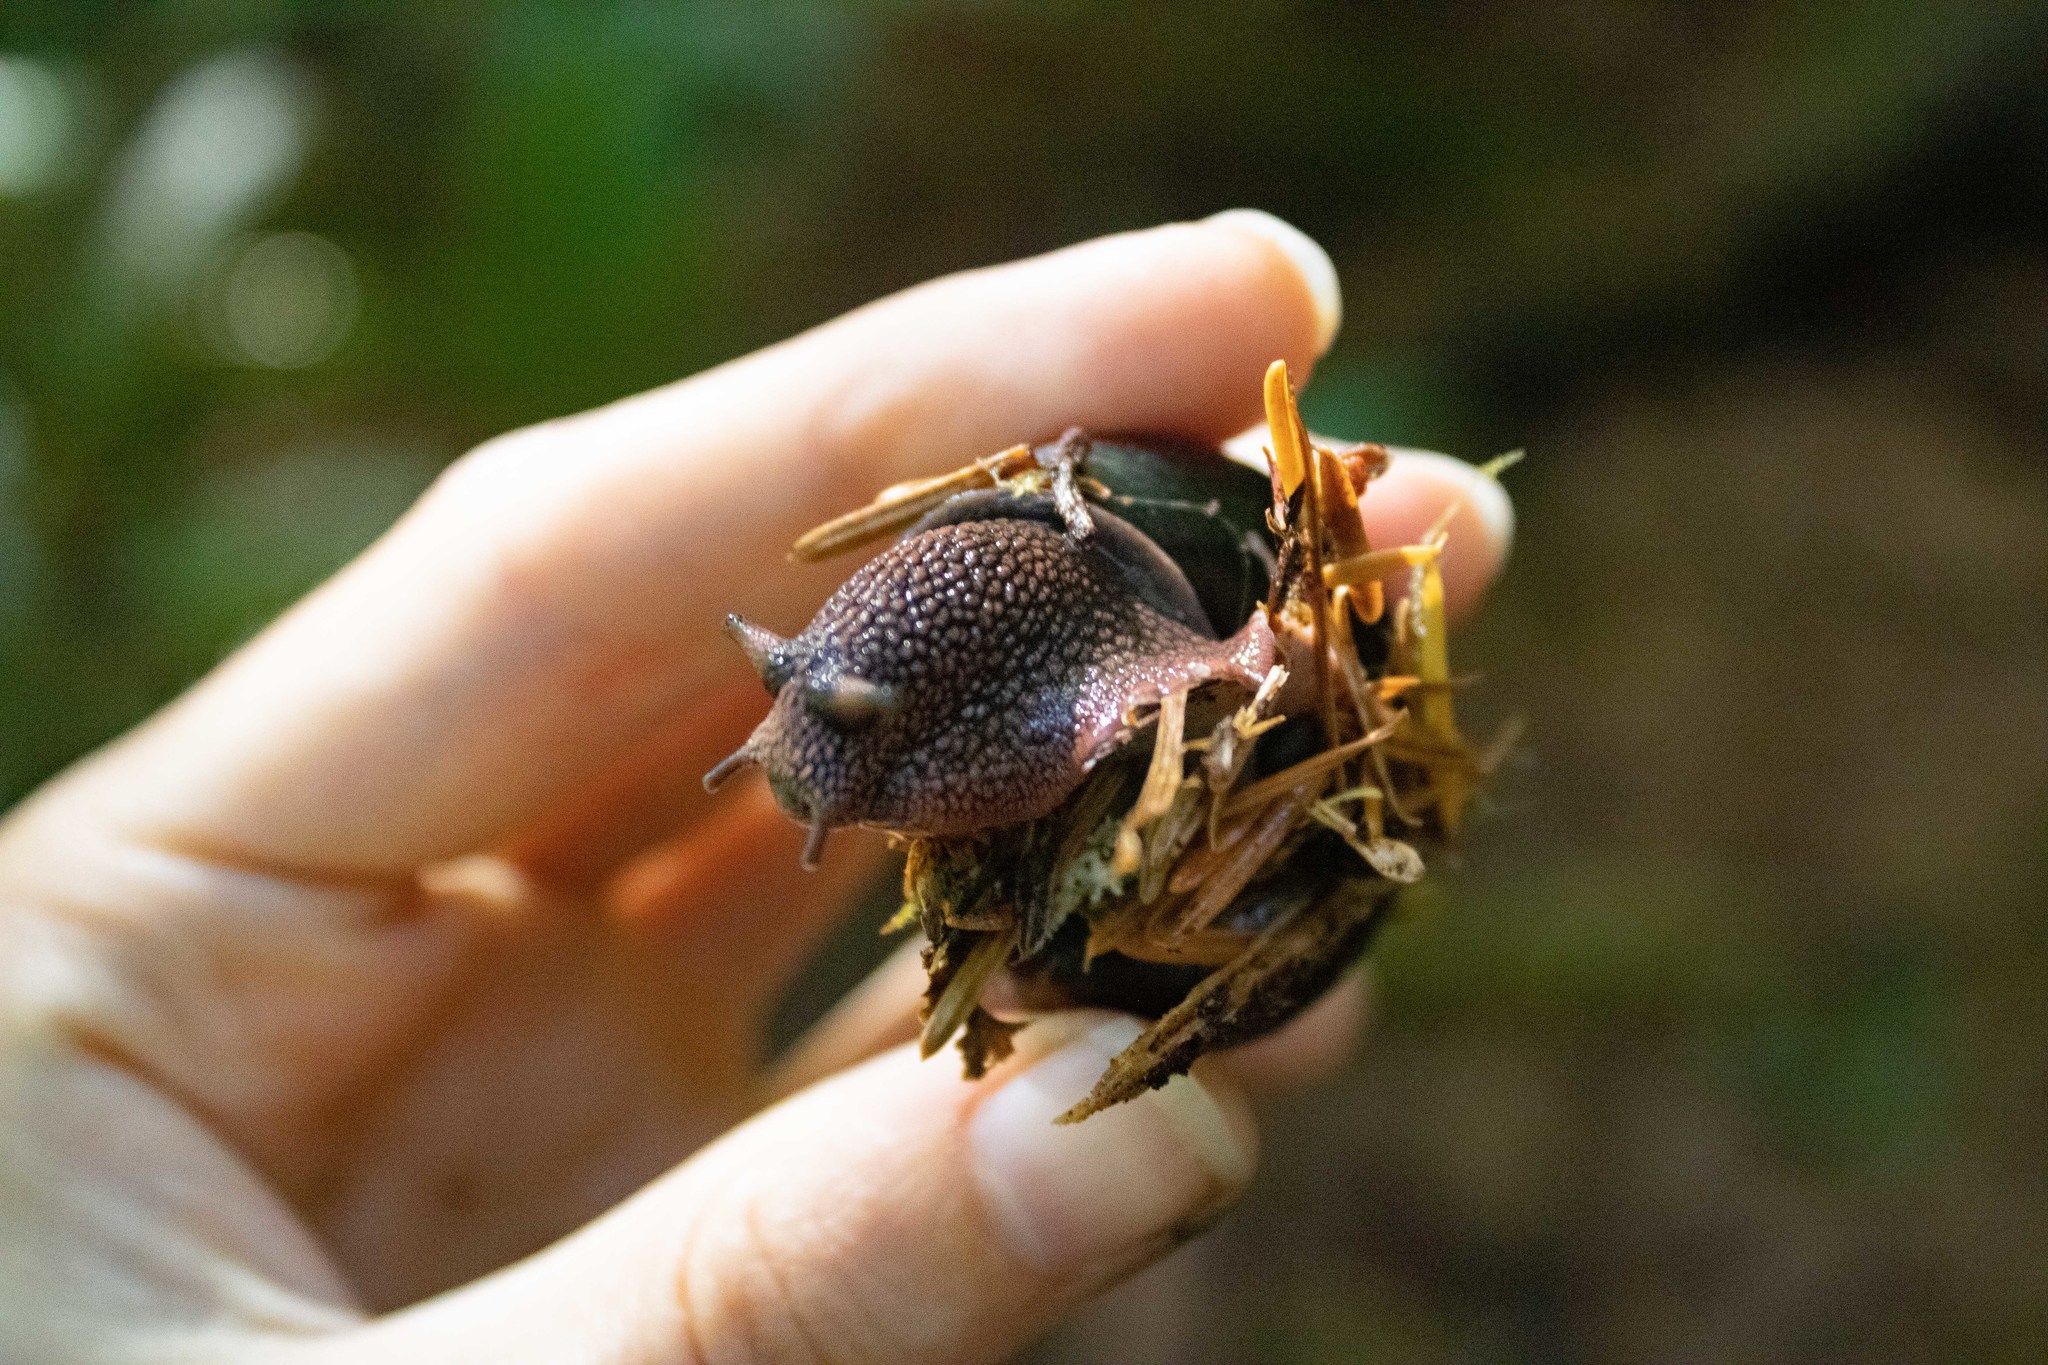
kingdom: Animalia
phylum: Mollusca
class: Gastropoda
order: Stylommatophora
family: Xanthonychidae
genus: Monadenia
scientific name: Monadenia fidelis
